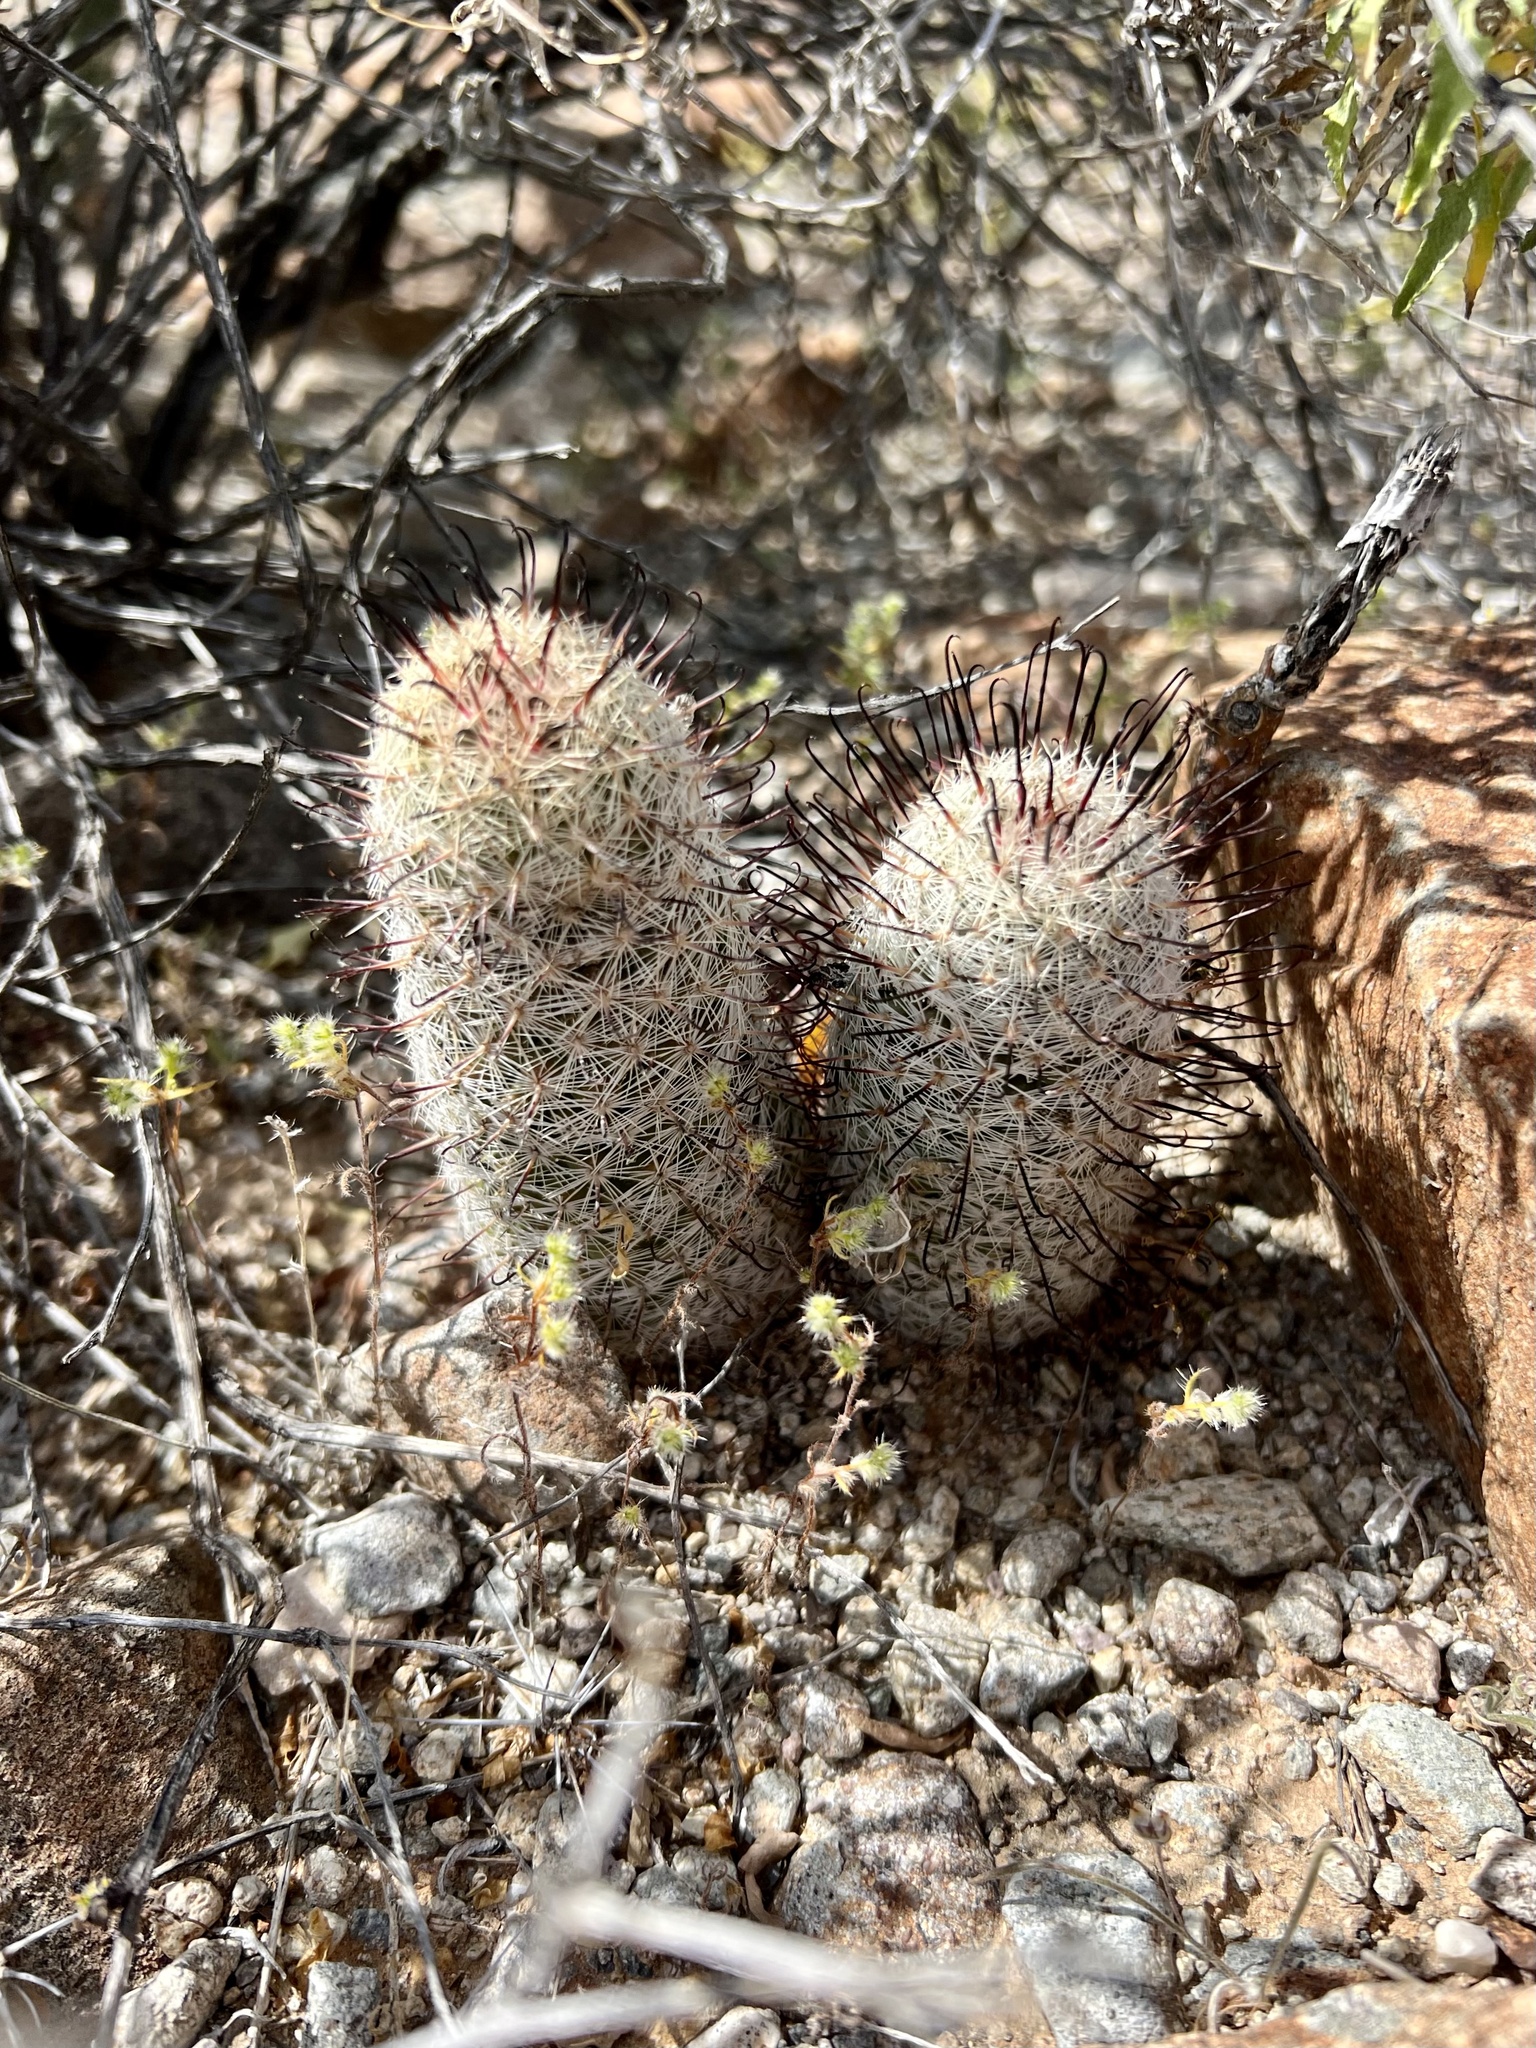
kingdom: Plantae
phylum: Tracheophyta
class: Magnoliopsida
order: Caryophyllales
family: Cactaceae
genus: Cochemiea
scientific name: Cochemiea grahamii
